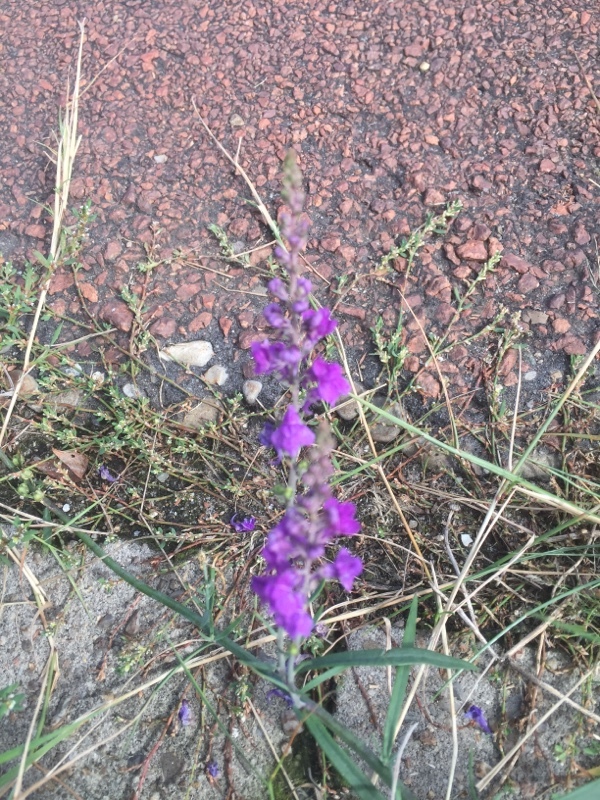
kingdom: Plantae
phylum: Tracheophyta
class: Magnoliopsida
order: Lamiales
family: Plantaginaceae
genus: Linaria
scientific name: Linaria purpurea
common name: Purple toadflax
